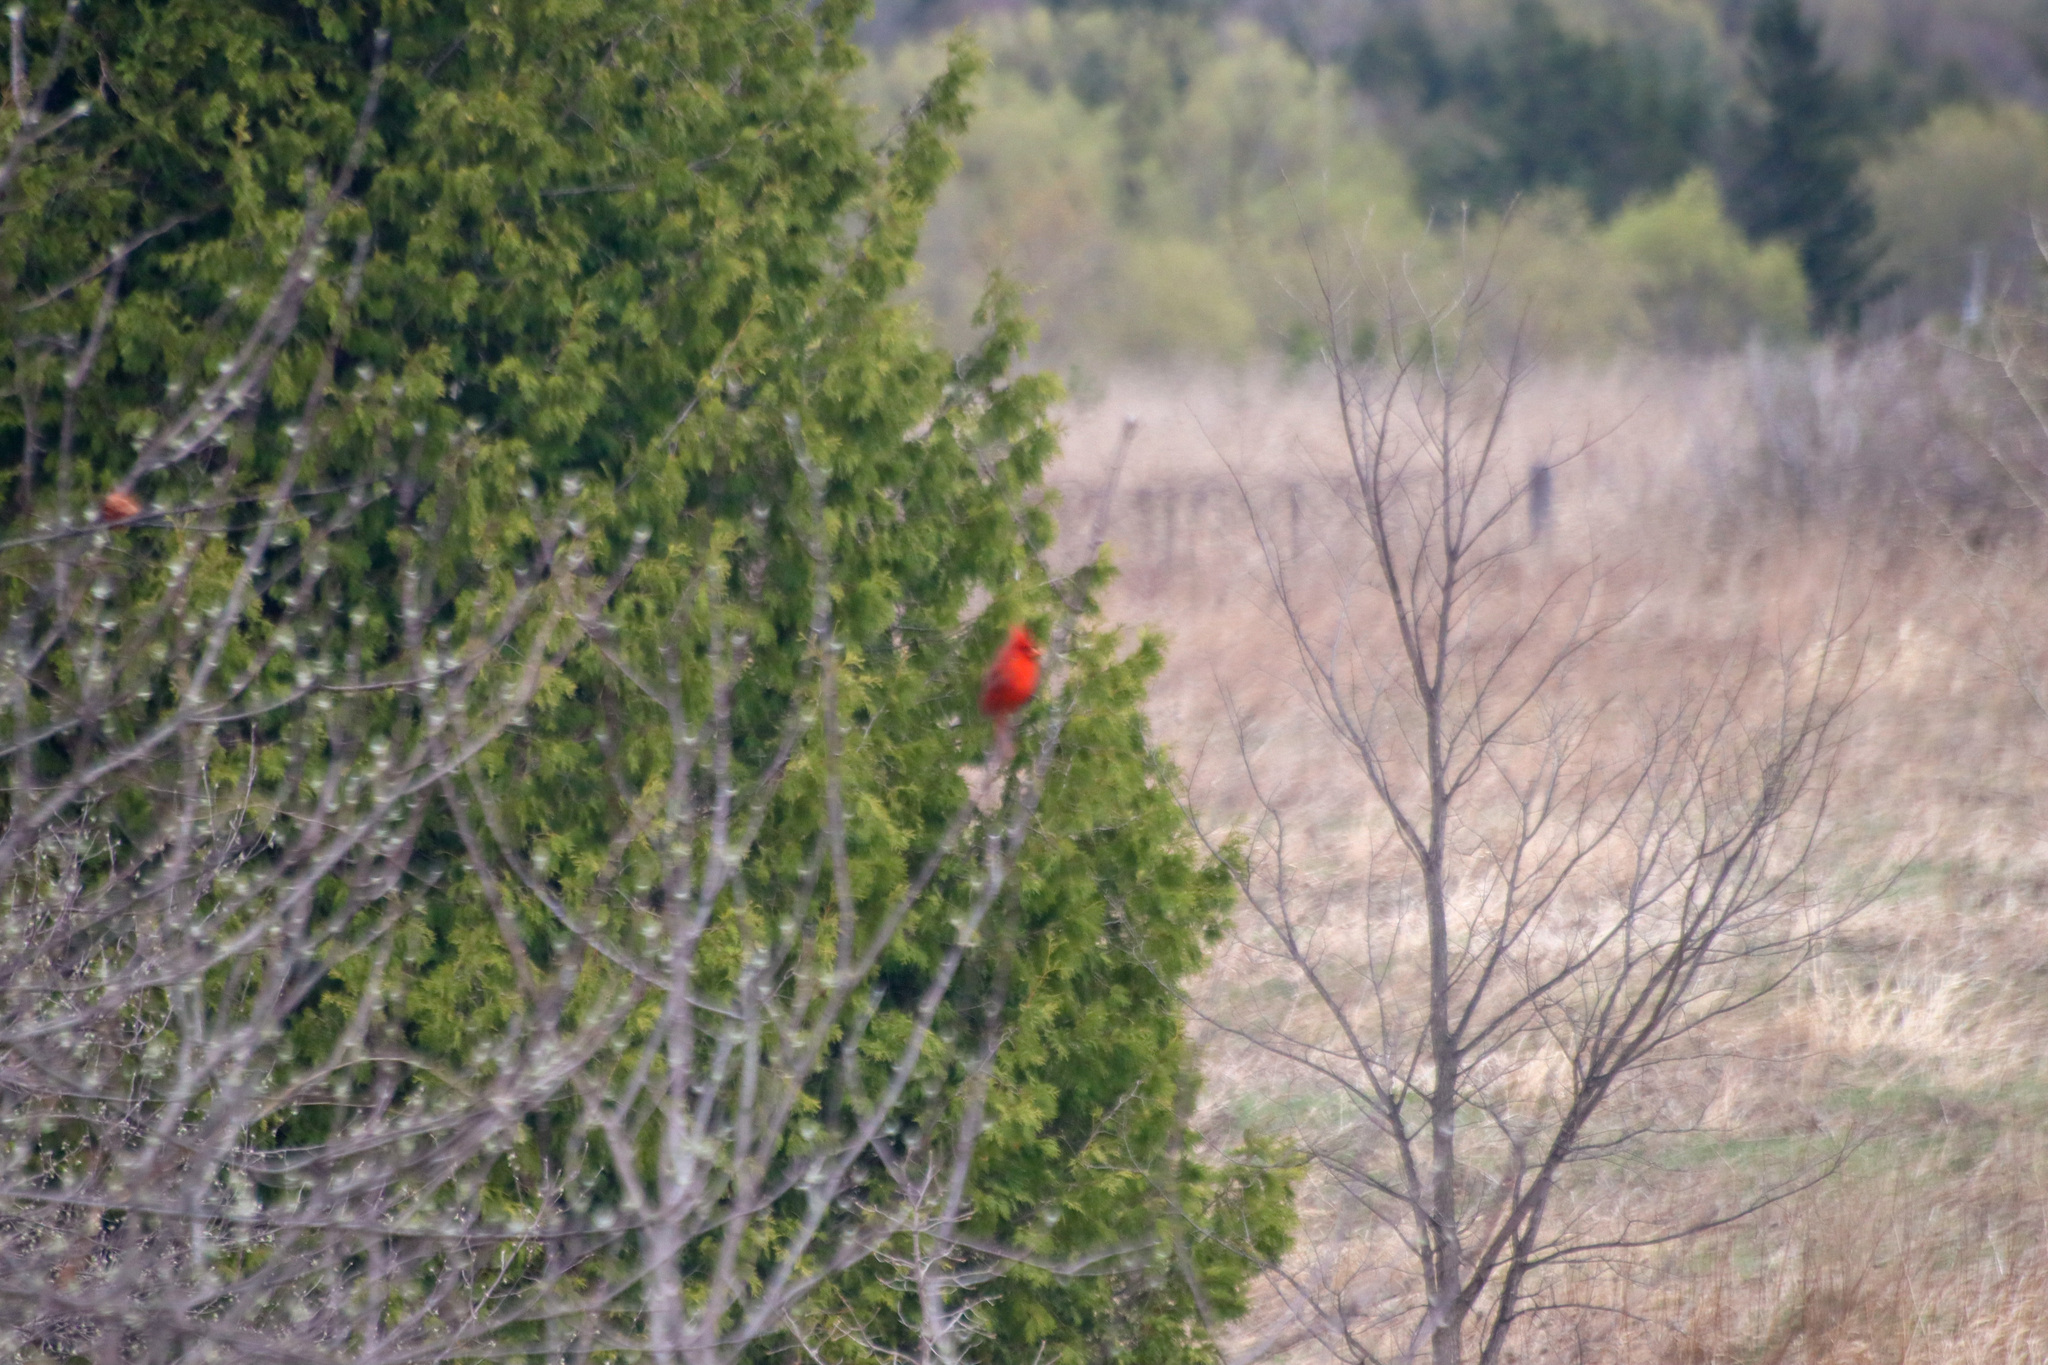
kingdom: Animalia
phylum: Chordata
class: Aves
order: Passeriformes
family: Cardinalidae
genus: Cardinalis
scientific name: Cardinalis cardinalis
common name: Northern cardinal
